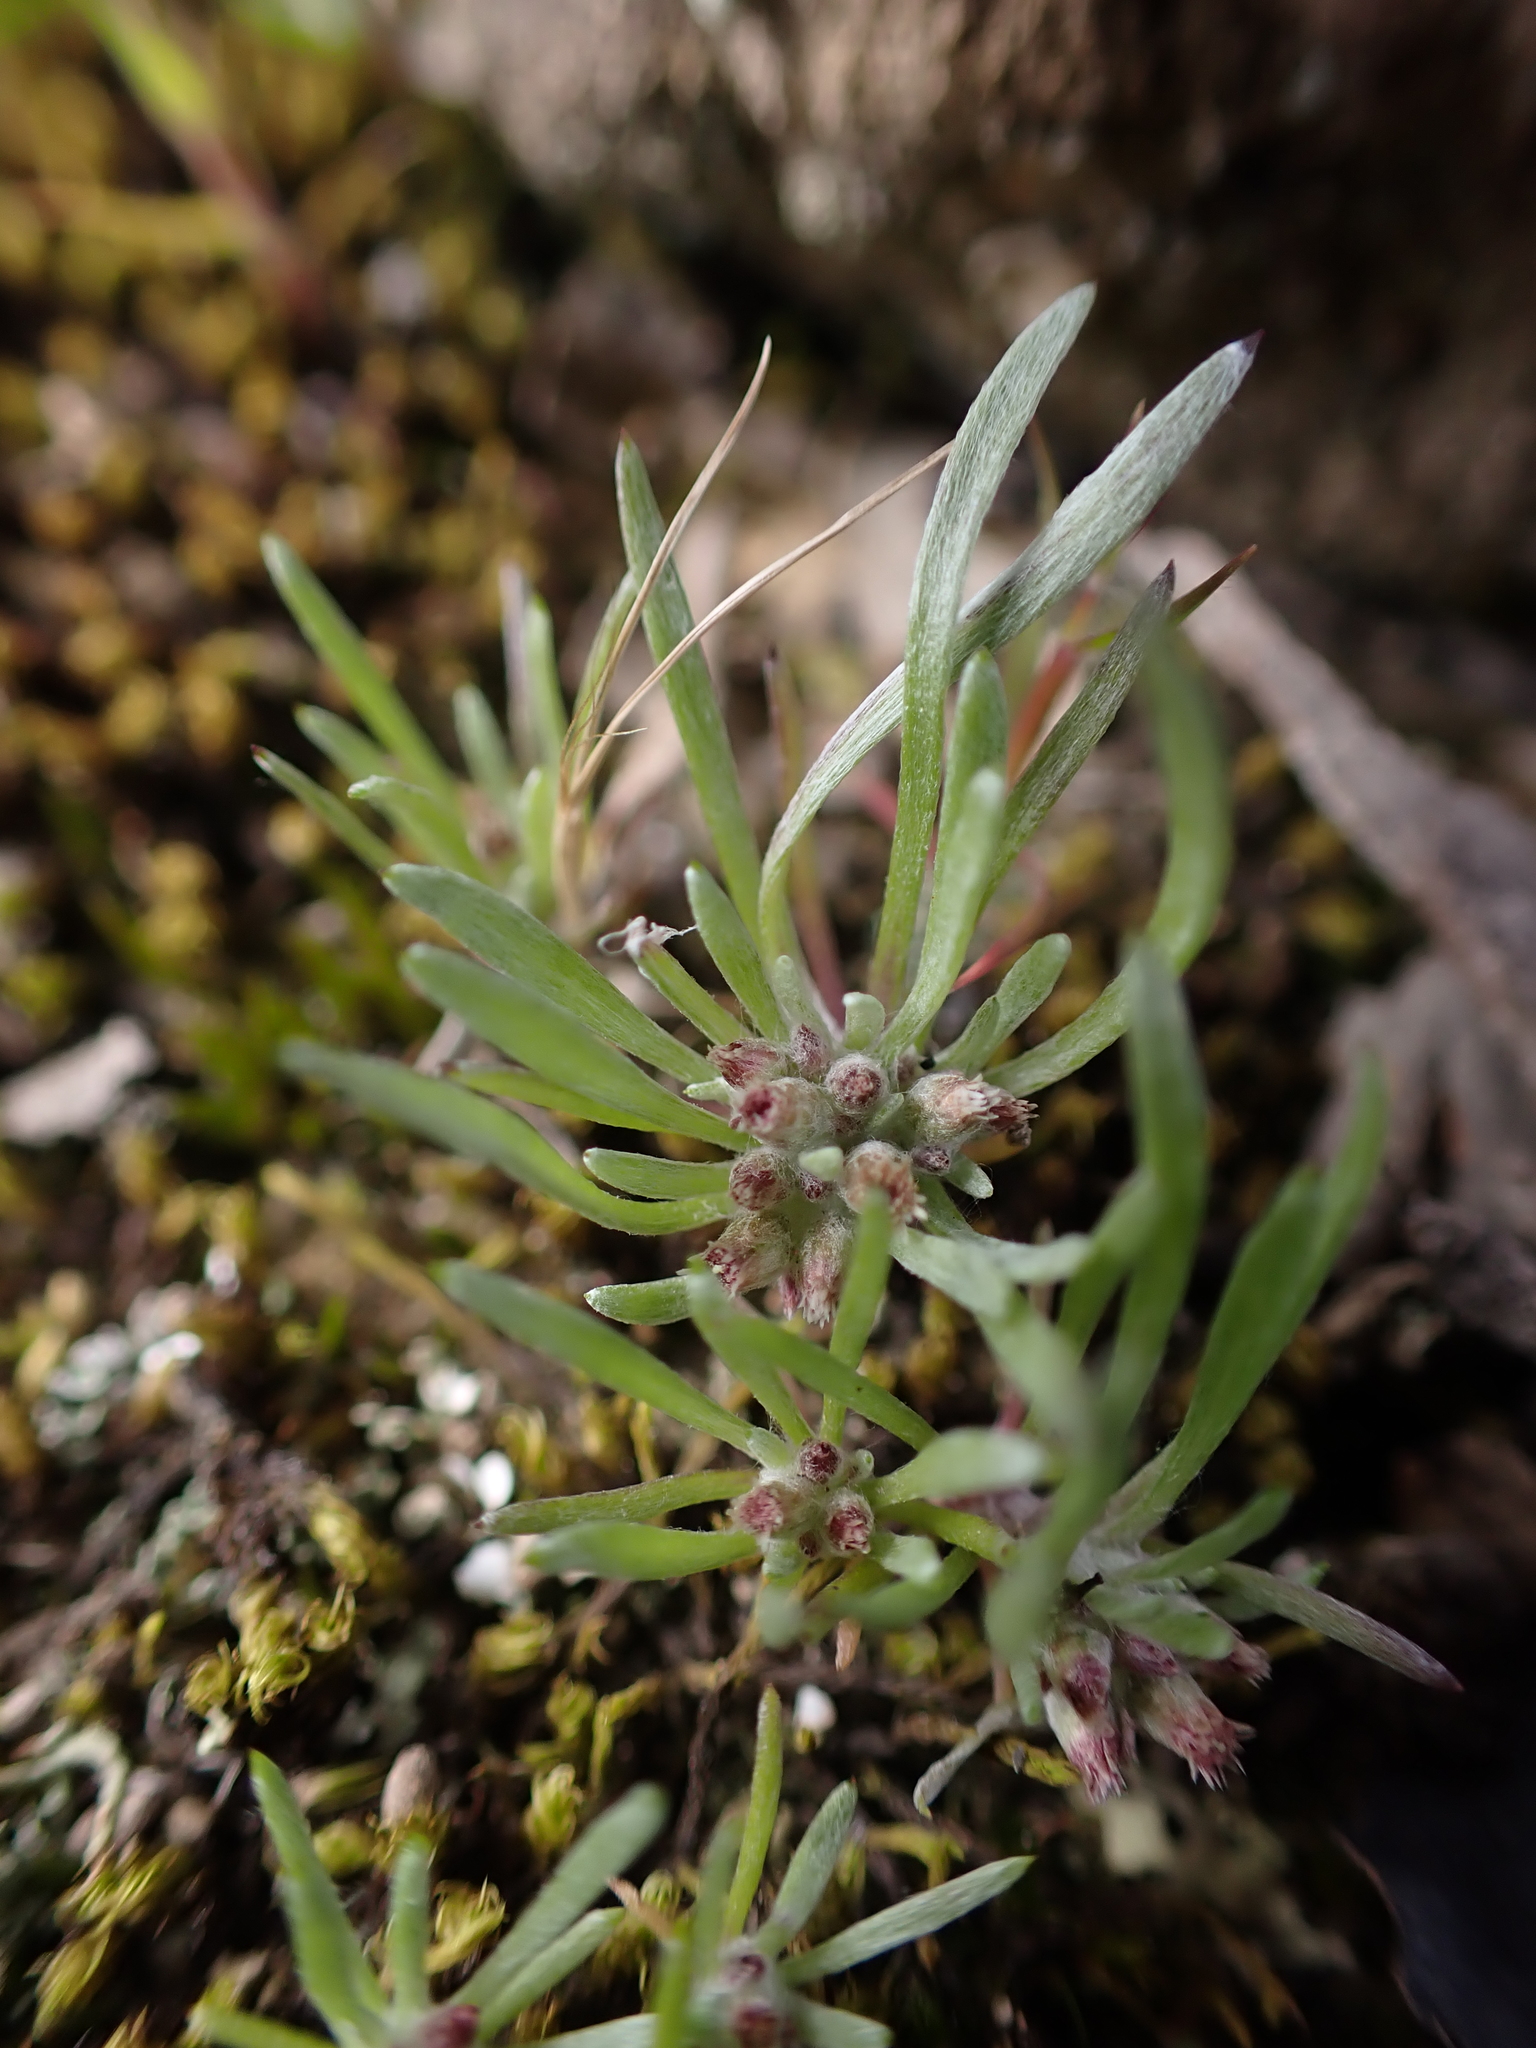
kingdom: Plantae
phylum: Tracheophyta
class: Magnoliopsida
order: Asterales
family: Asteraceae
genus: Gnaphalium
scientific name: Gnaphalium indutum
